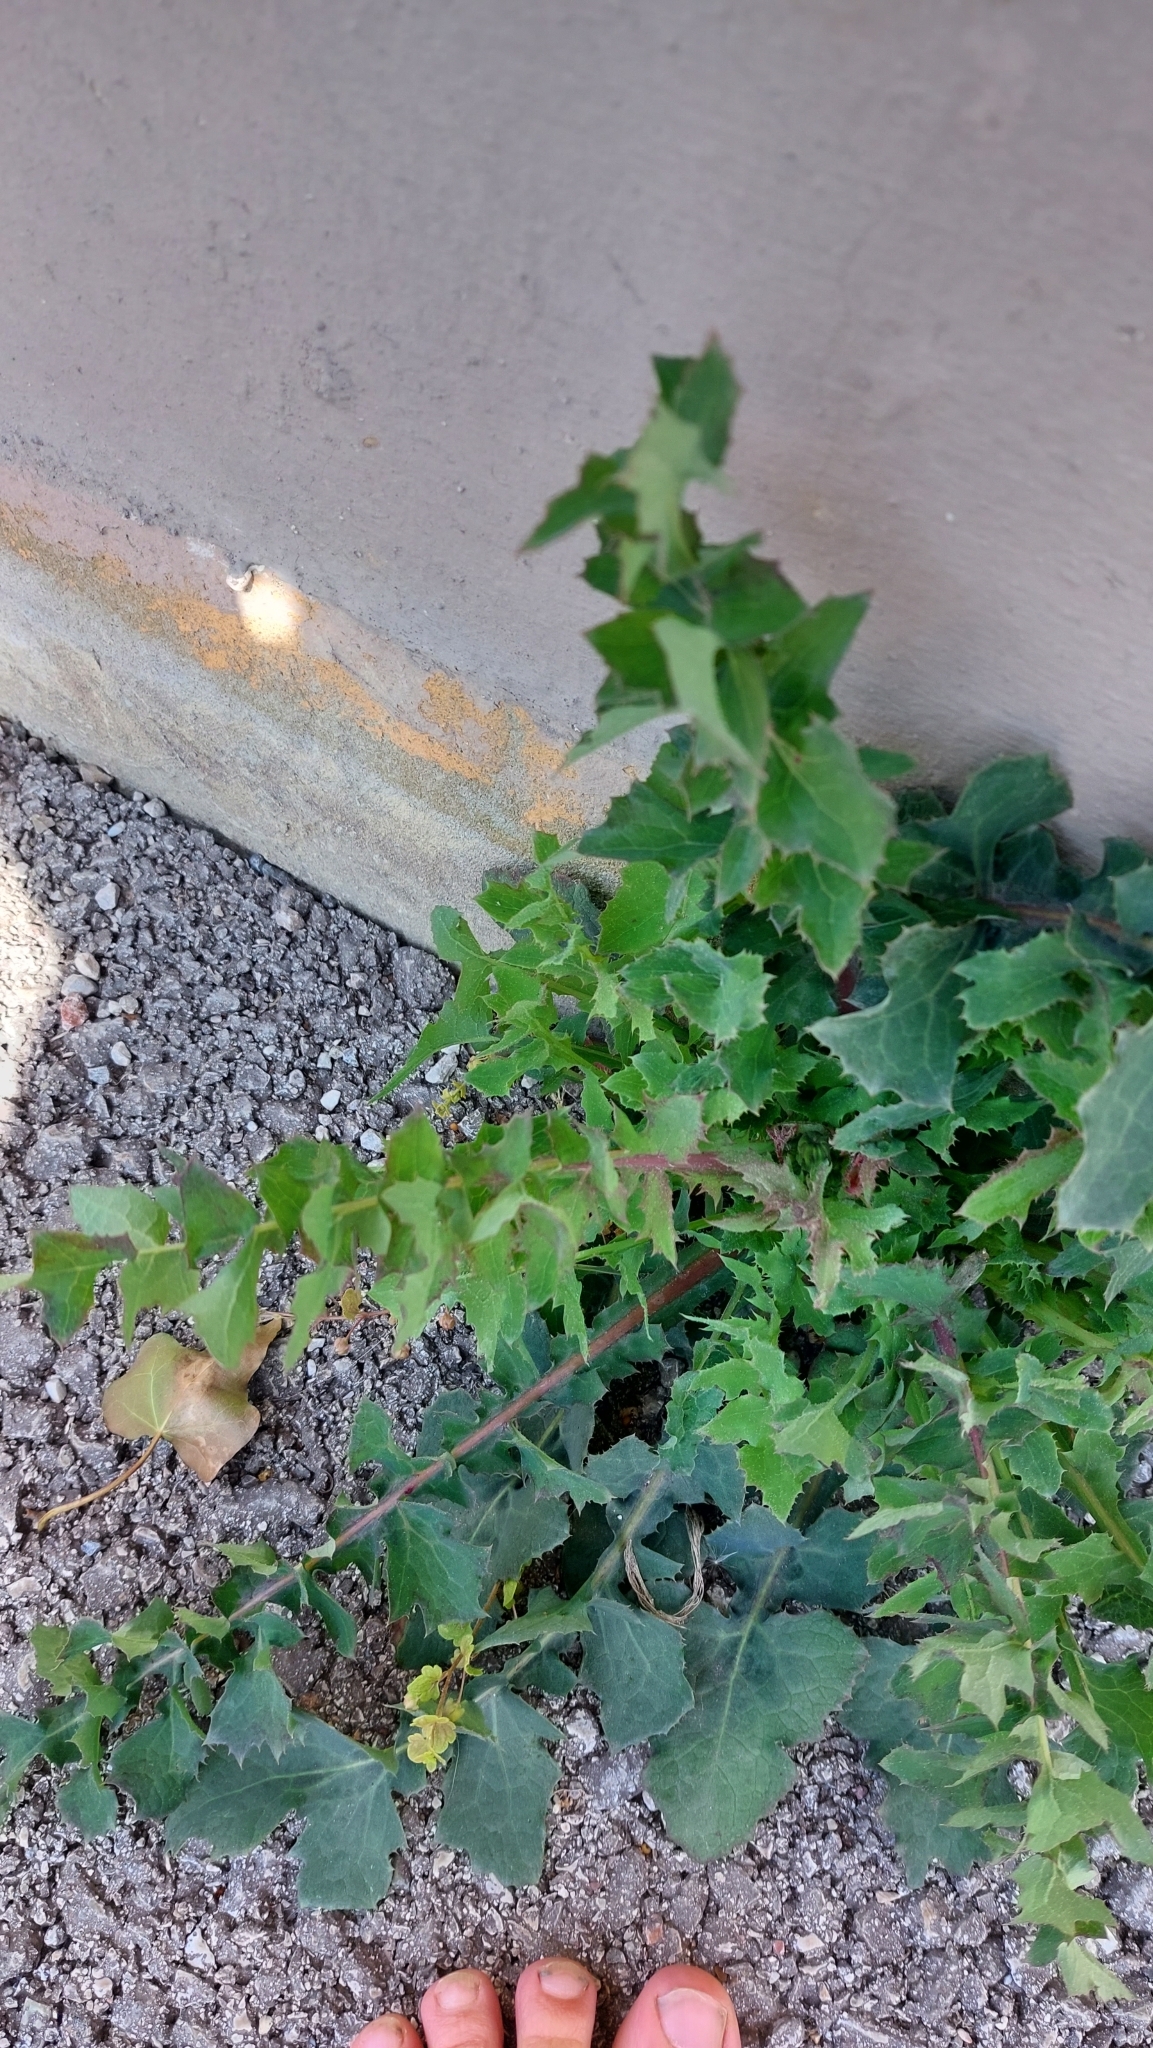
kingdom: Plantae
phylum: Tracheophyta
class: Magnoliopsida
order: Asterales
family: Asteraceae
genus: Sonchus
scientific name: Sonchus oleraceus
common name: Common sowthistle
